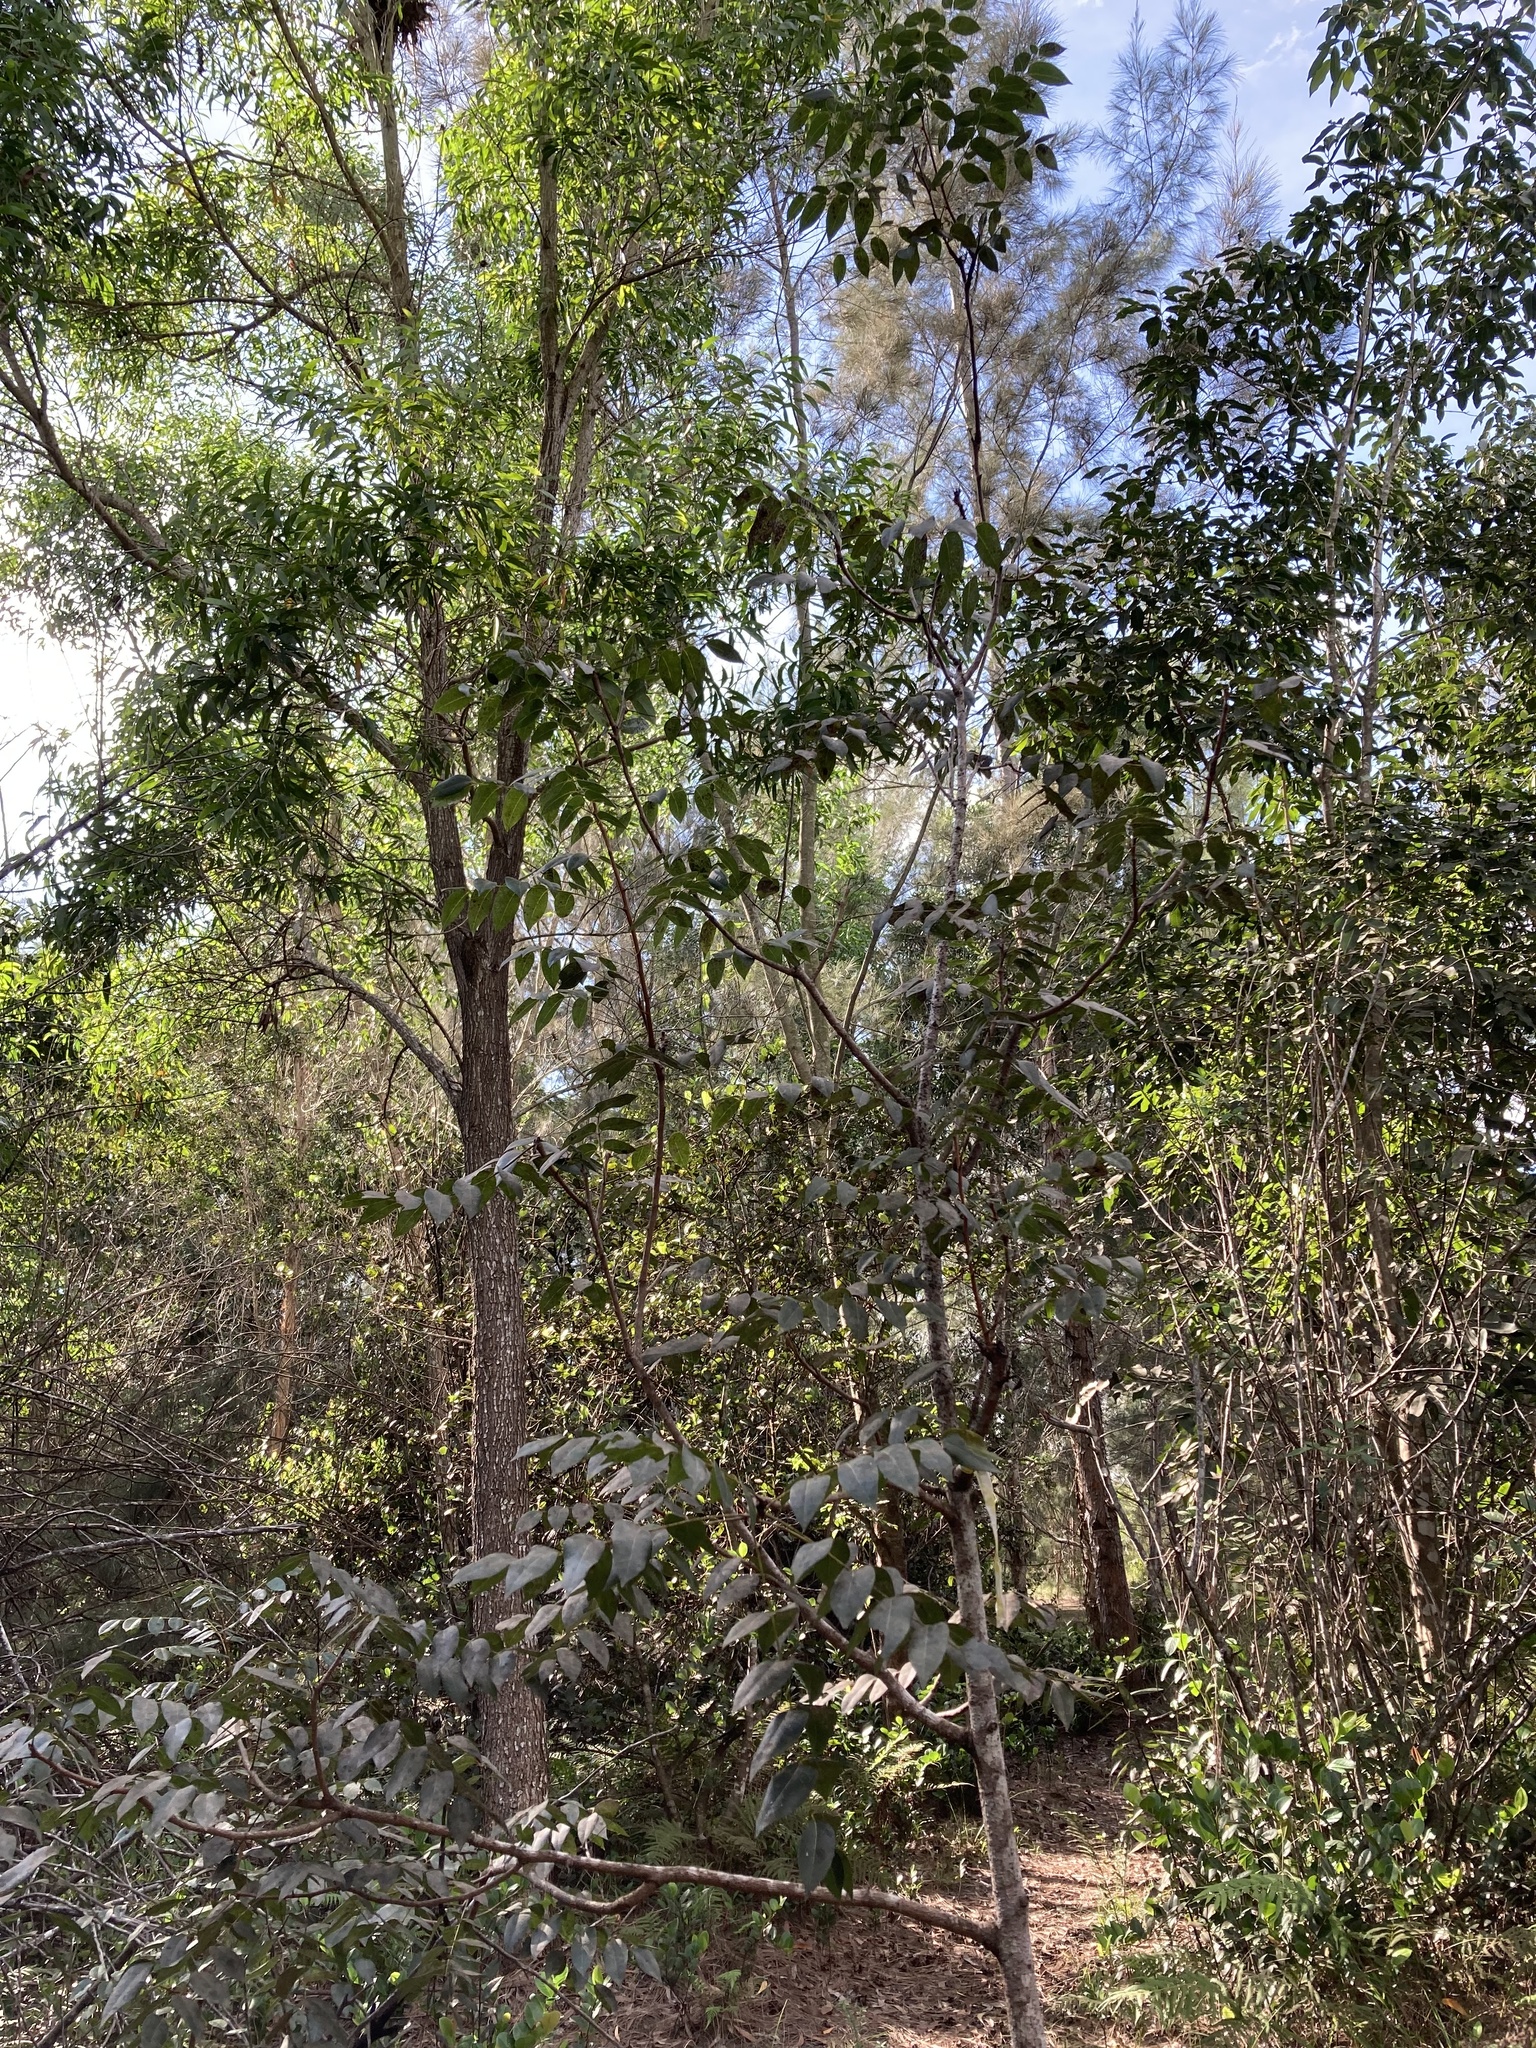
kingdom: Plantae
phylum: Tracheophyta
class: Magnoliopsida
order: Sapindales
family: Meliaceae
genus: Swietenia
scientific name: Swietenia mahagoni
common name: West indian mahogany
